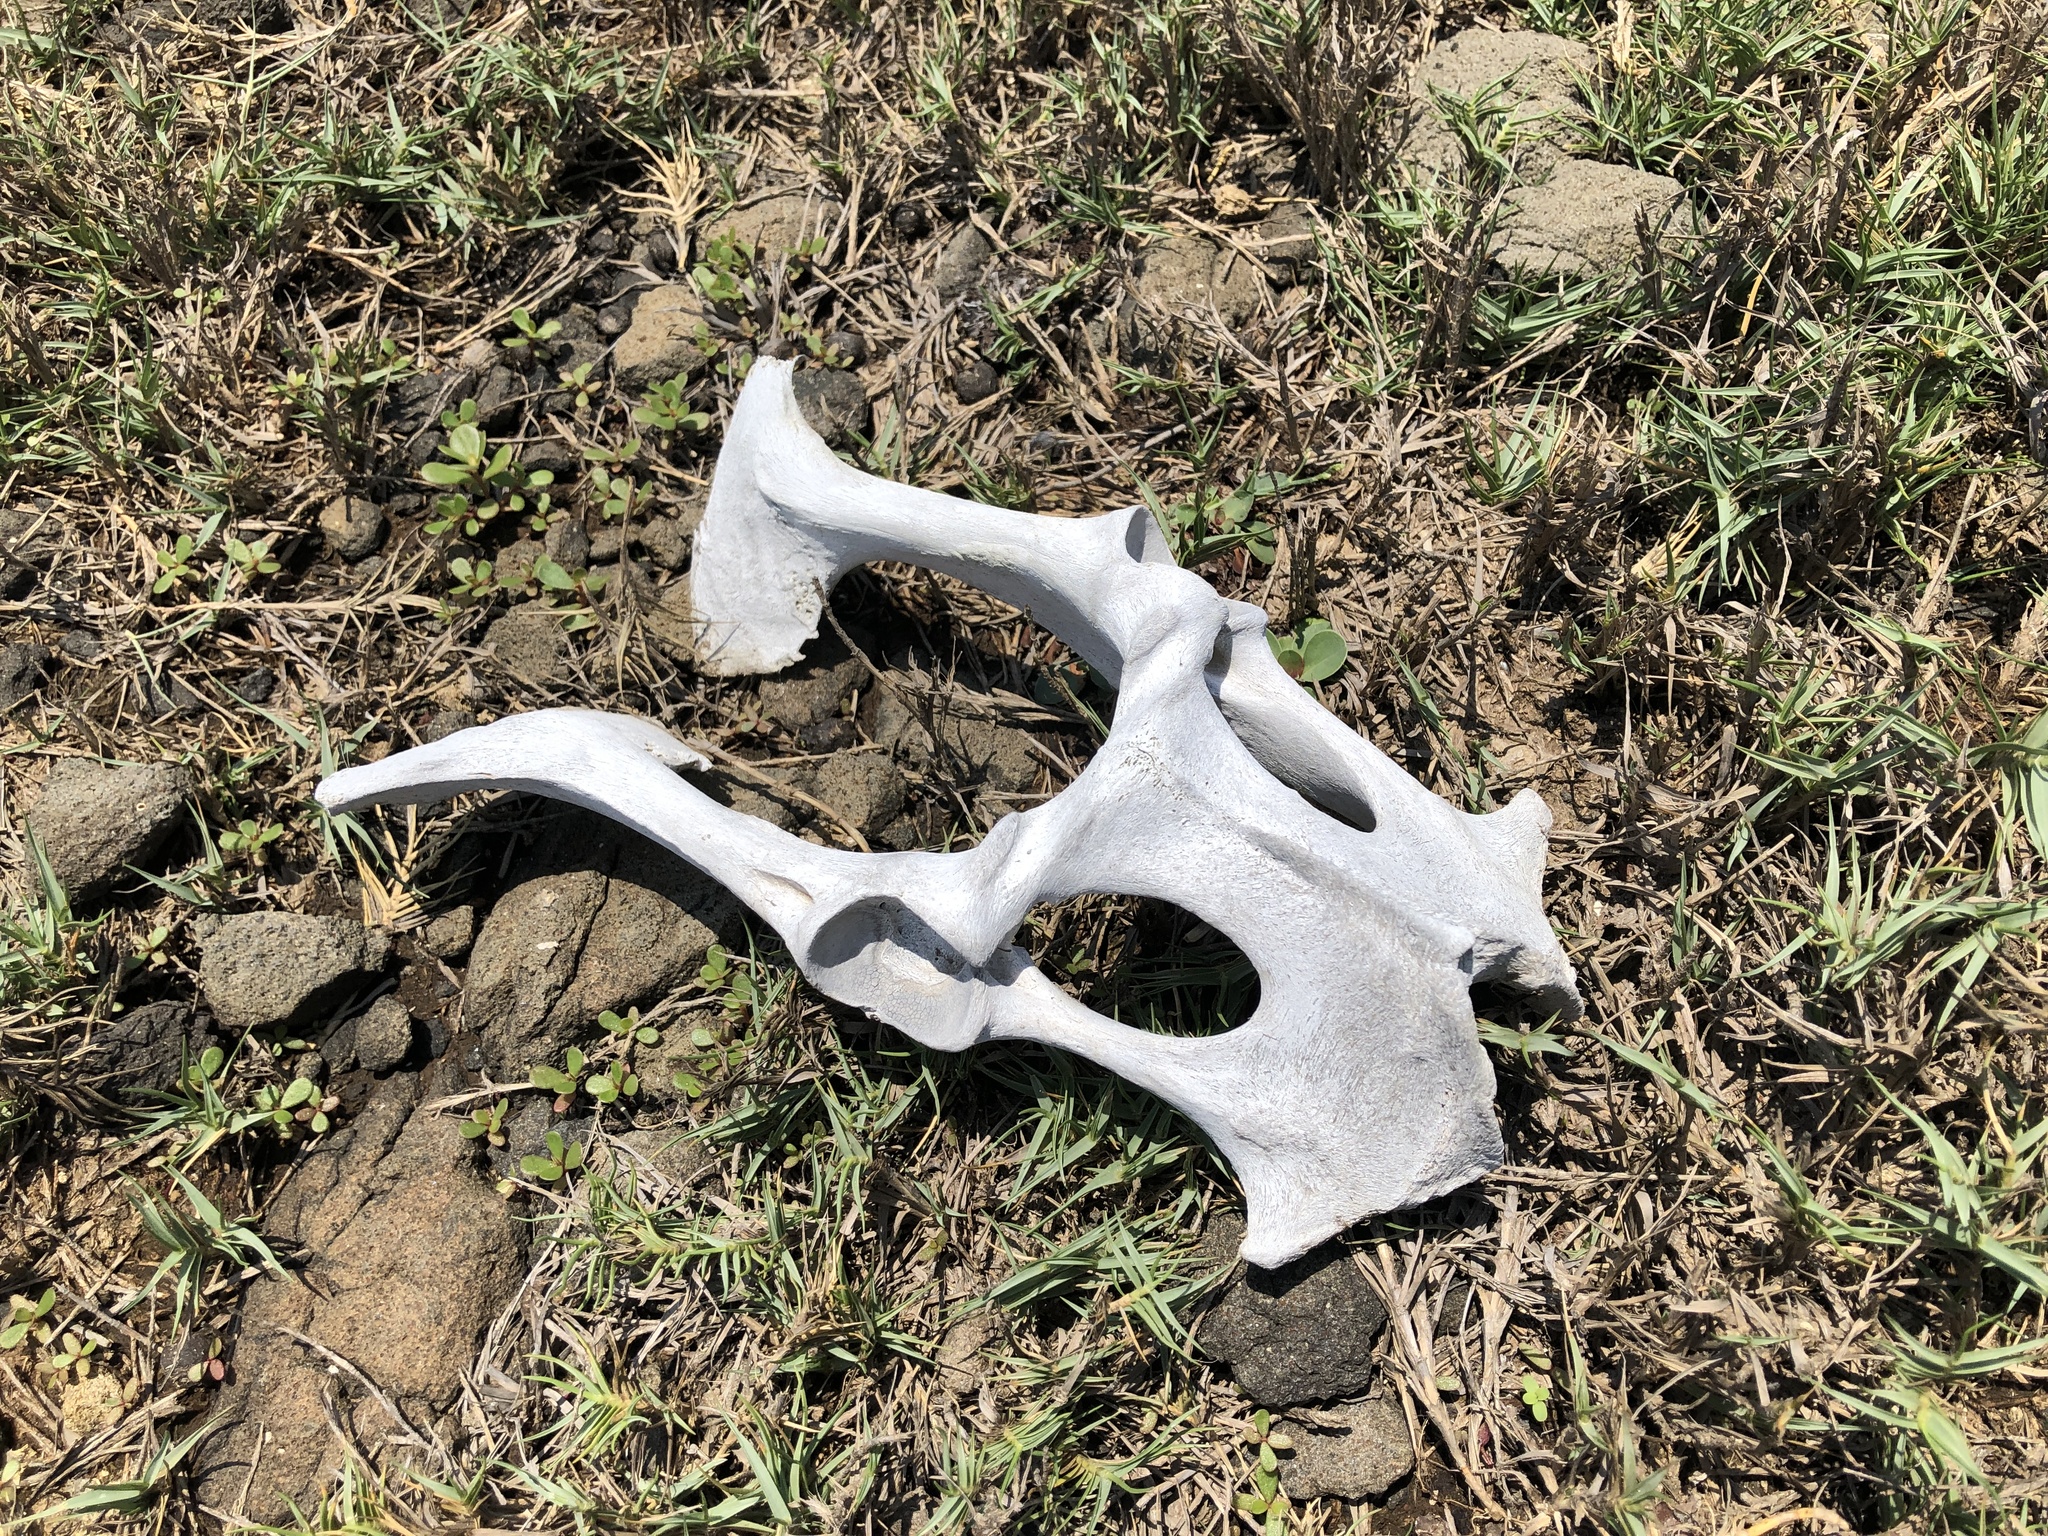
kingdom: Animalia
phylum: Chordata
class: Mammalia
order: Artiodactyla
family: Bovidae
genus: Capra
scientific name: Capra hircus
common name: Domestic goat
